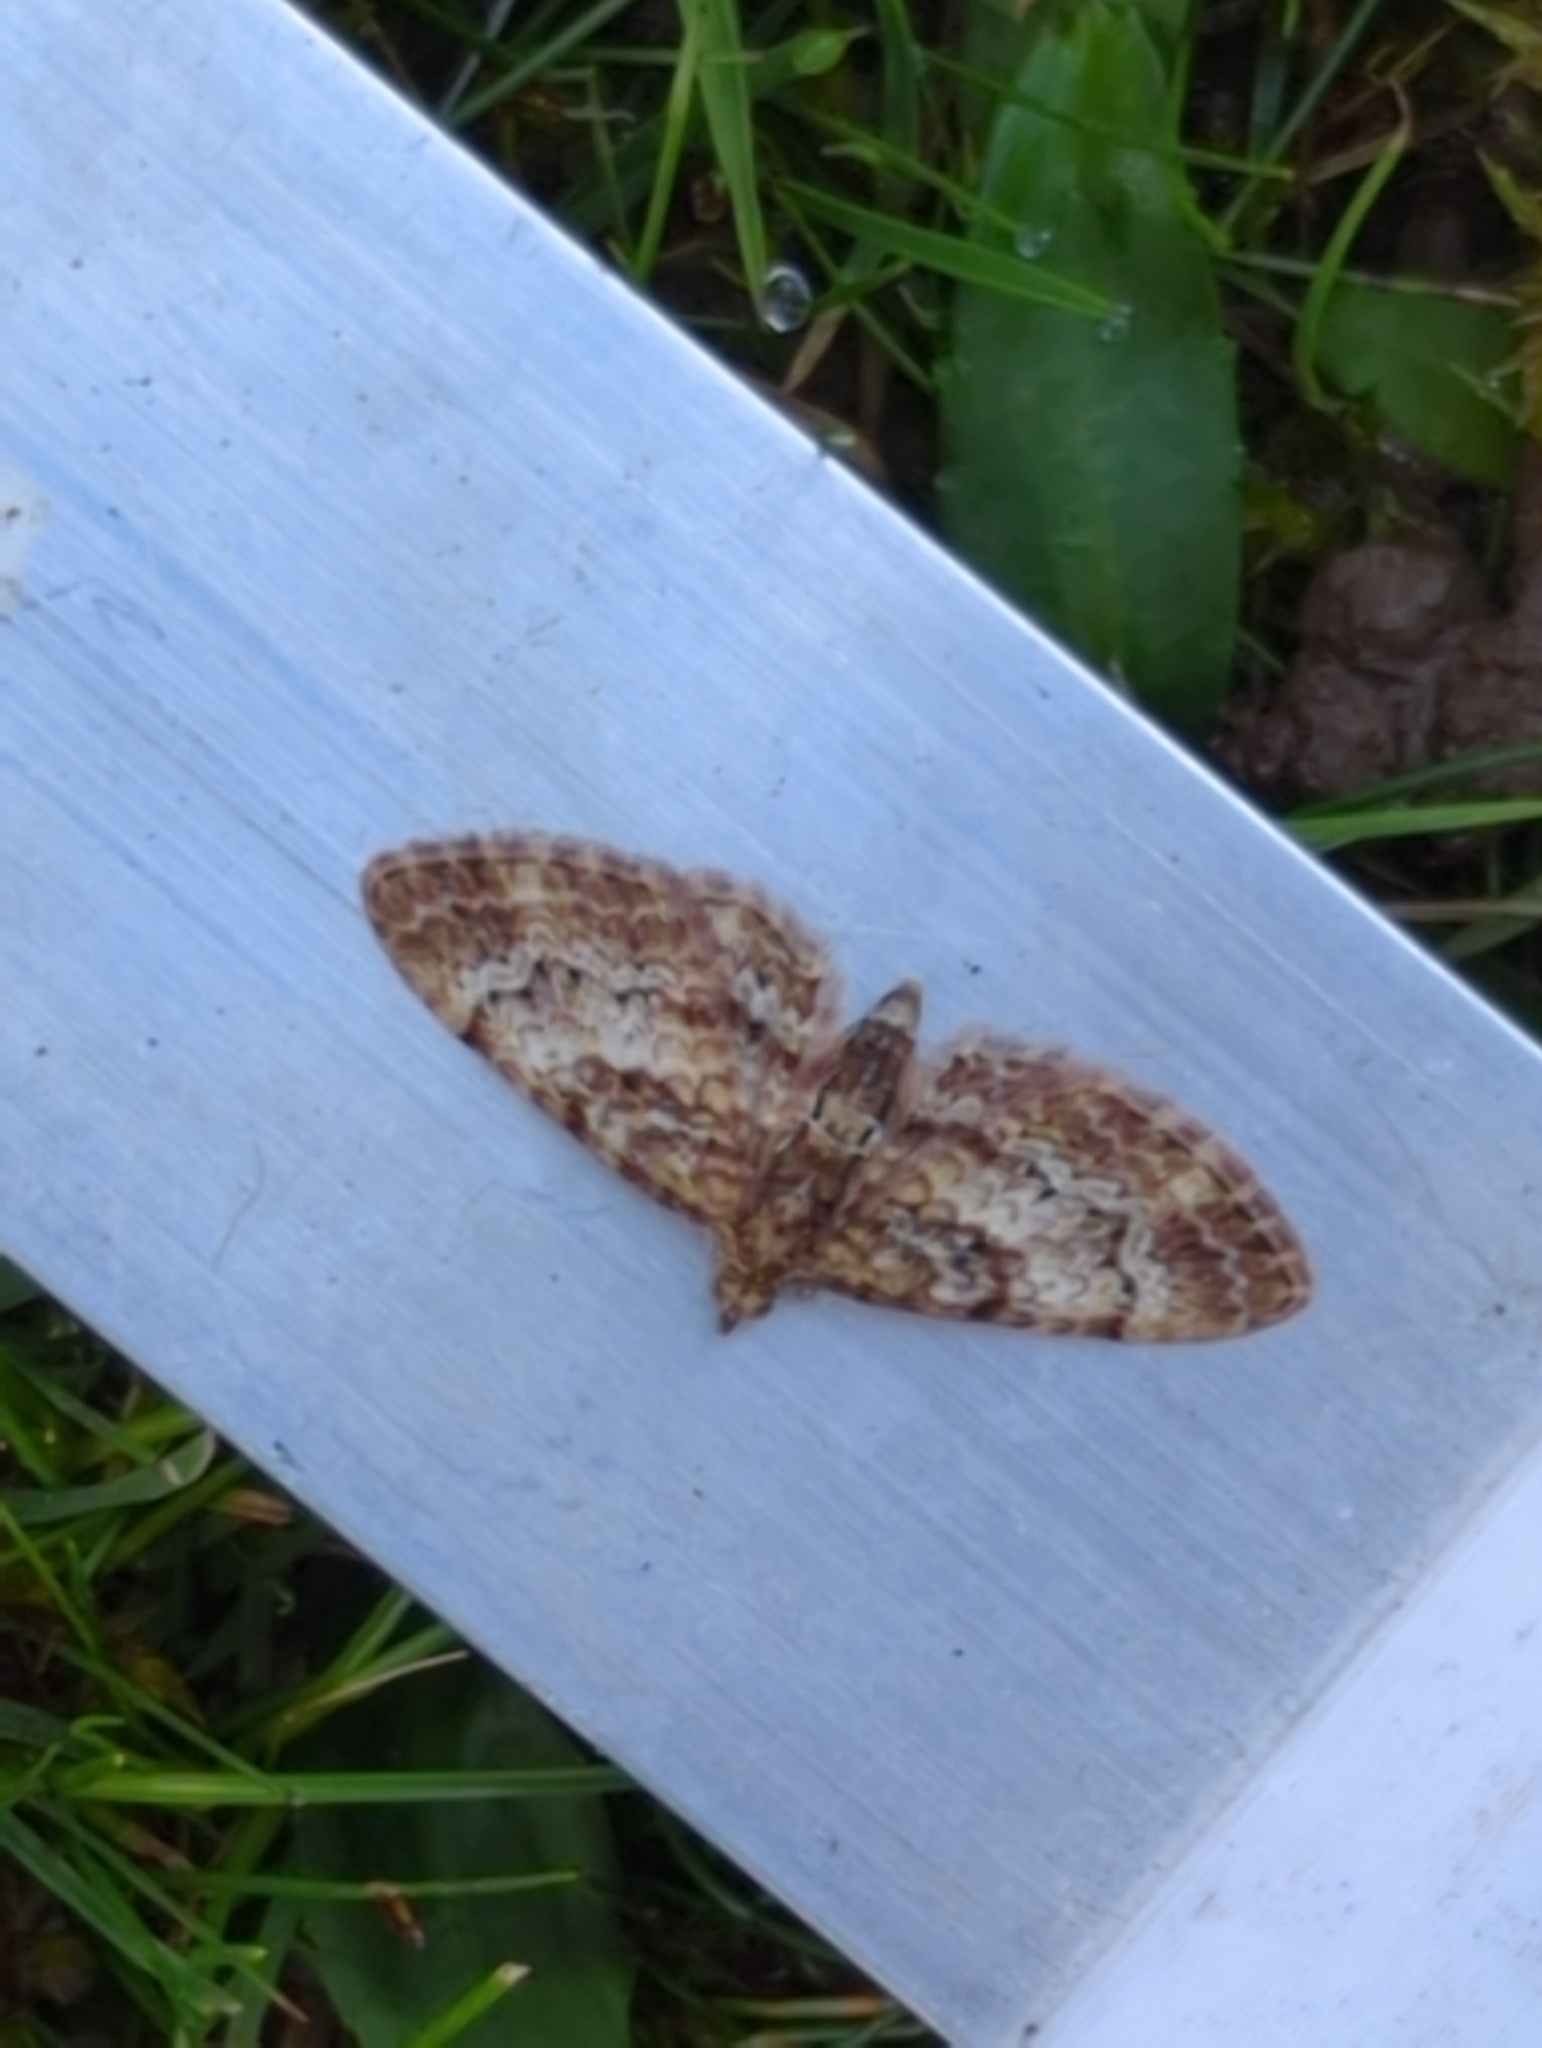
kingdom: Animalia
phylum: Arthropoda
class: Insecta
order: Lepidoptera
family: Geometridae
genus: Chloroclystis
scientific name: Chloroclystis approximata
